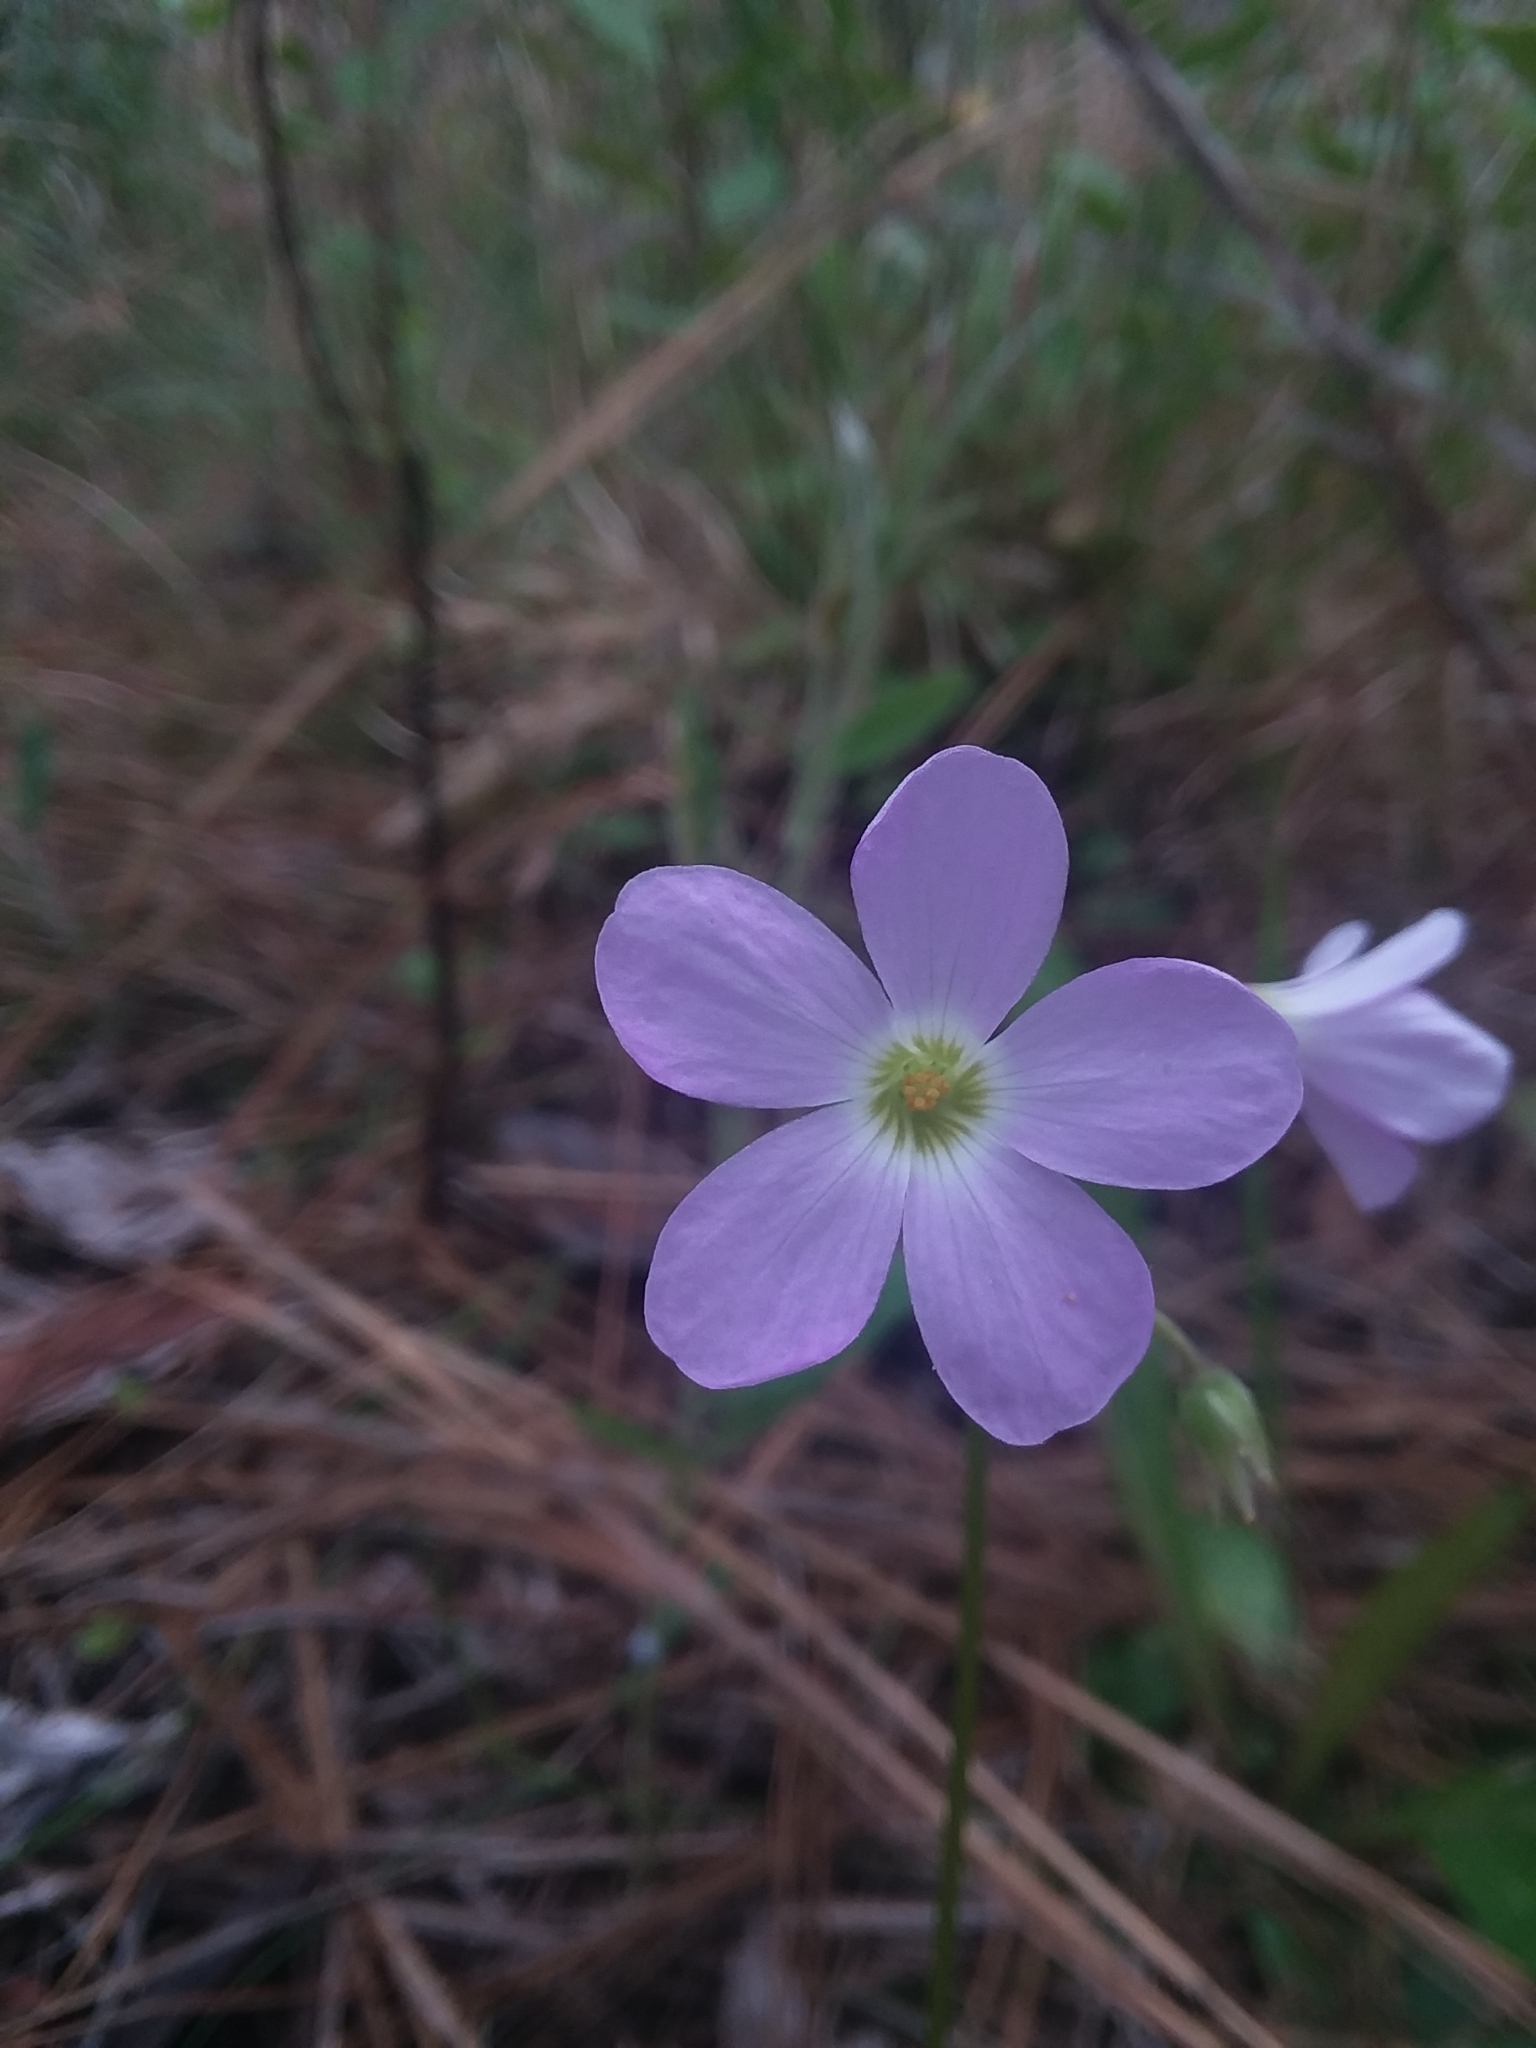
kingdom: Plantae
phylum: Tracheophyta
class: Magnoliopsida
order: Oxalidales
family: Oxalidaceae
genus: Oxalis
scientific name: Oxalis violacea
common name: Violet wood-sorrel
